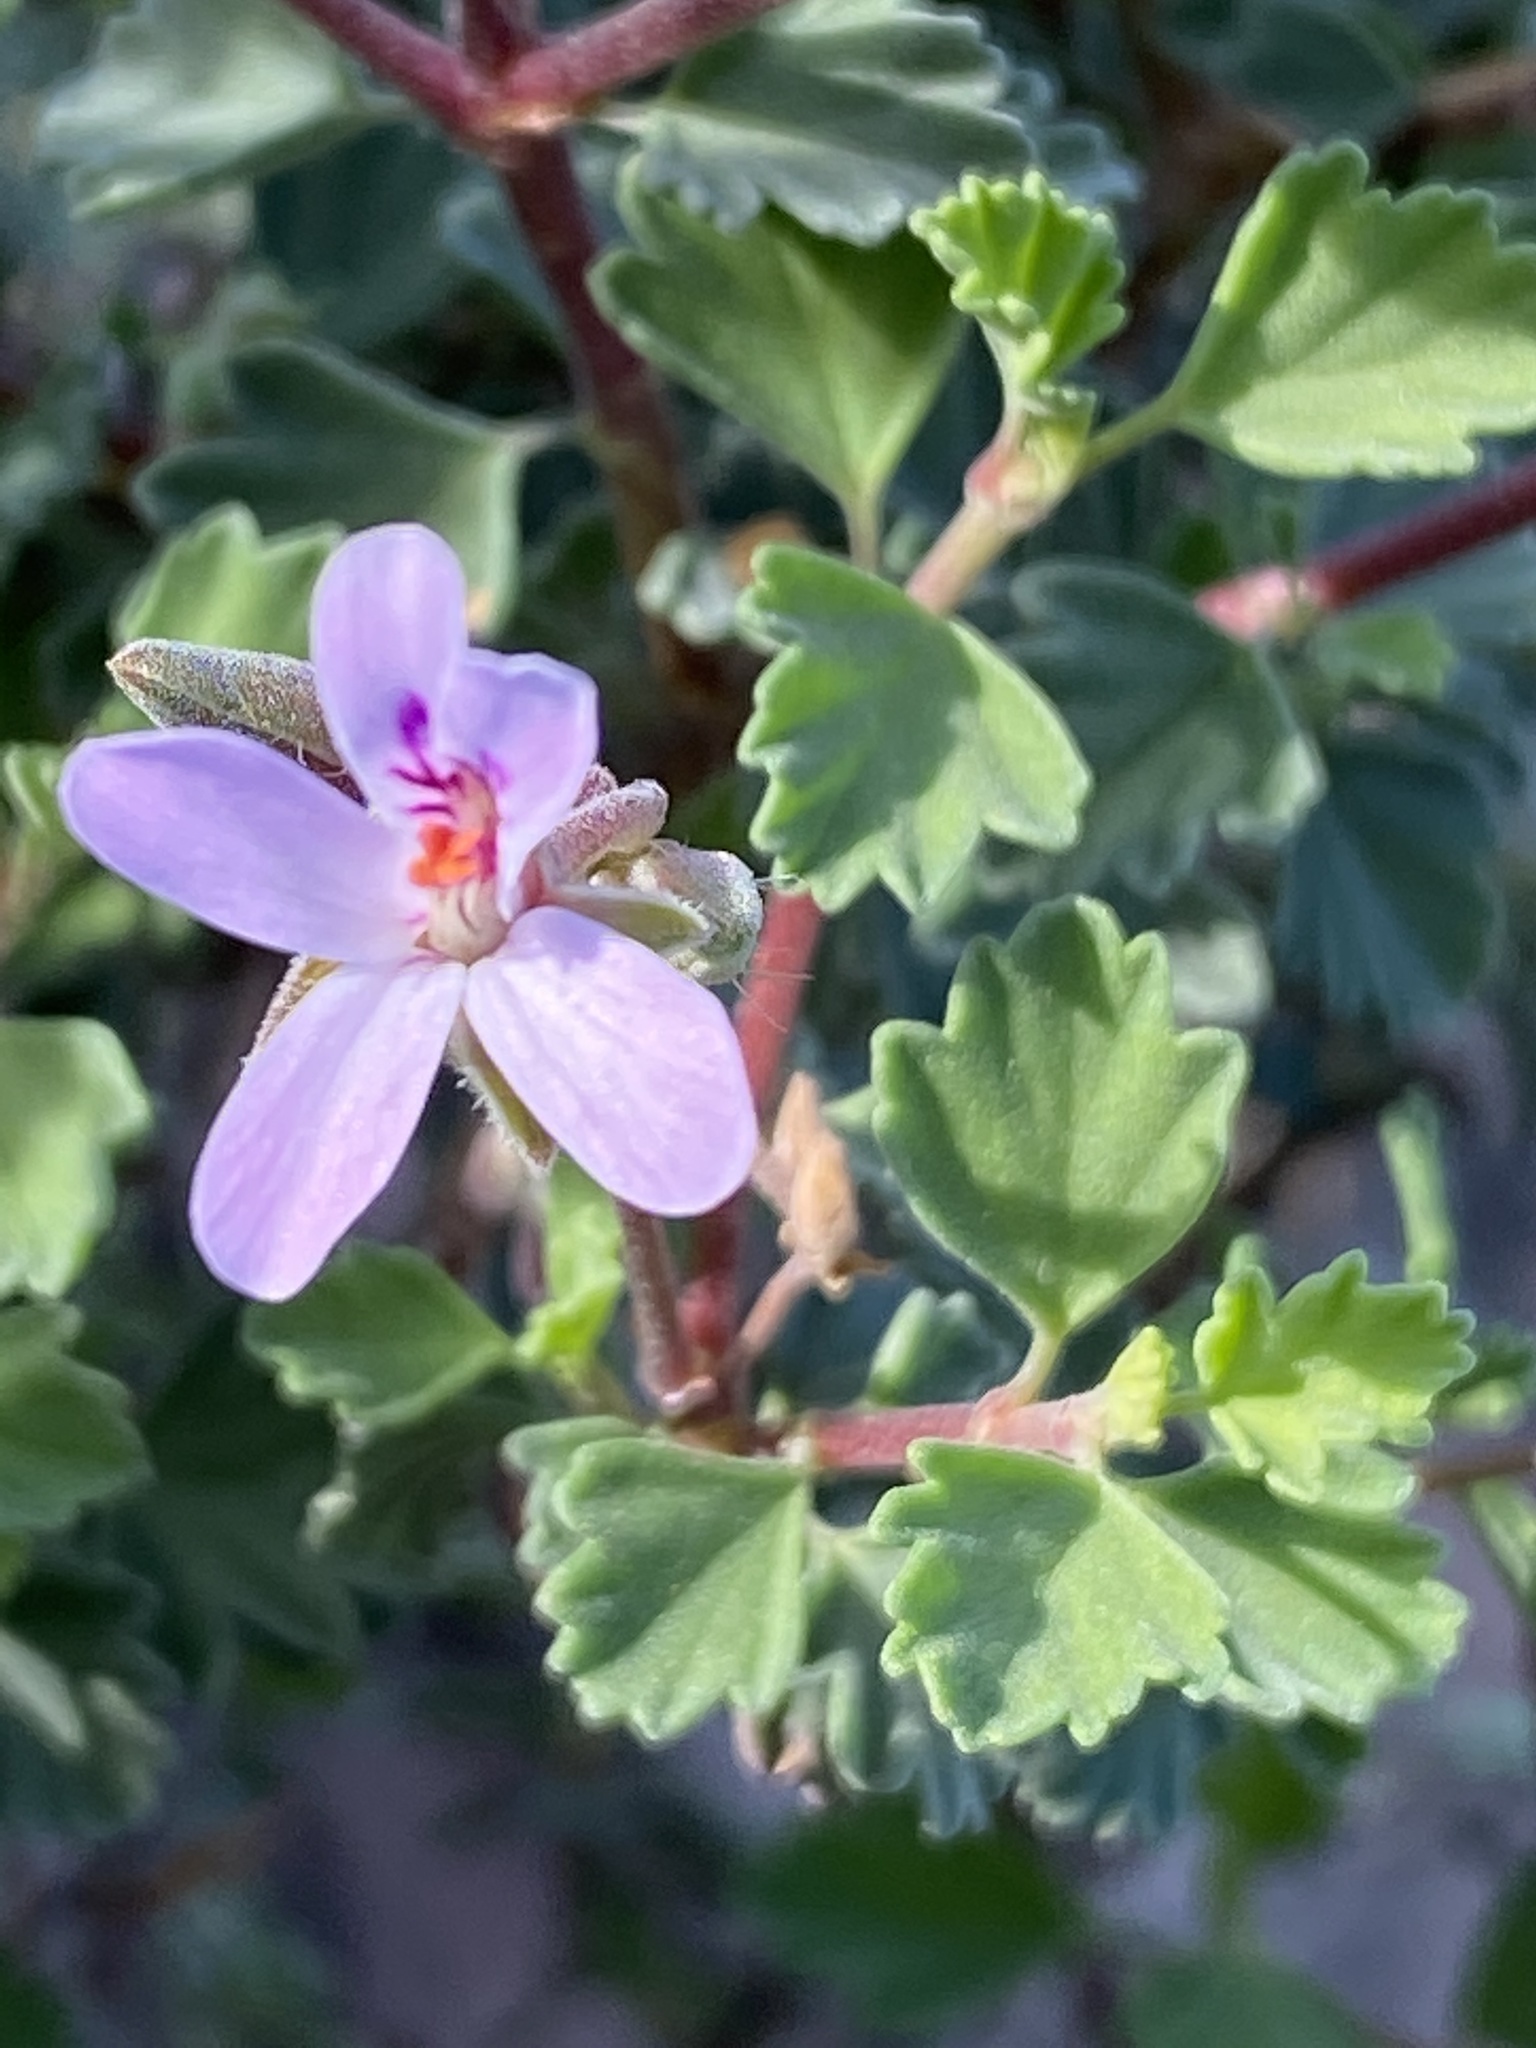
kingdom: Plantae
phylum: Tracheophyta
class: Magnoliopsida
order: Geraniales
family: Geraniaceae
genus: Pelargonium
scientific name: Pelargonium exstipulatum
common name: Soft-leaf trifid pelargonium
